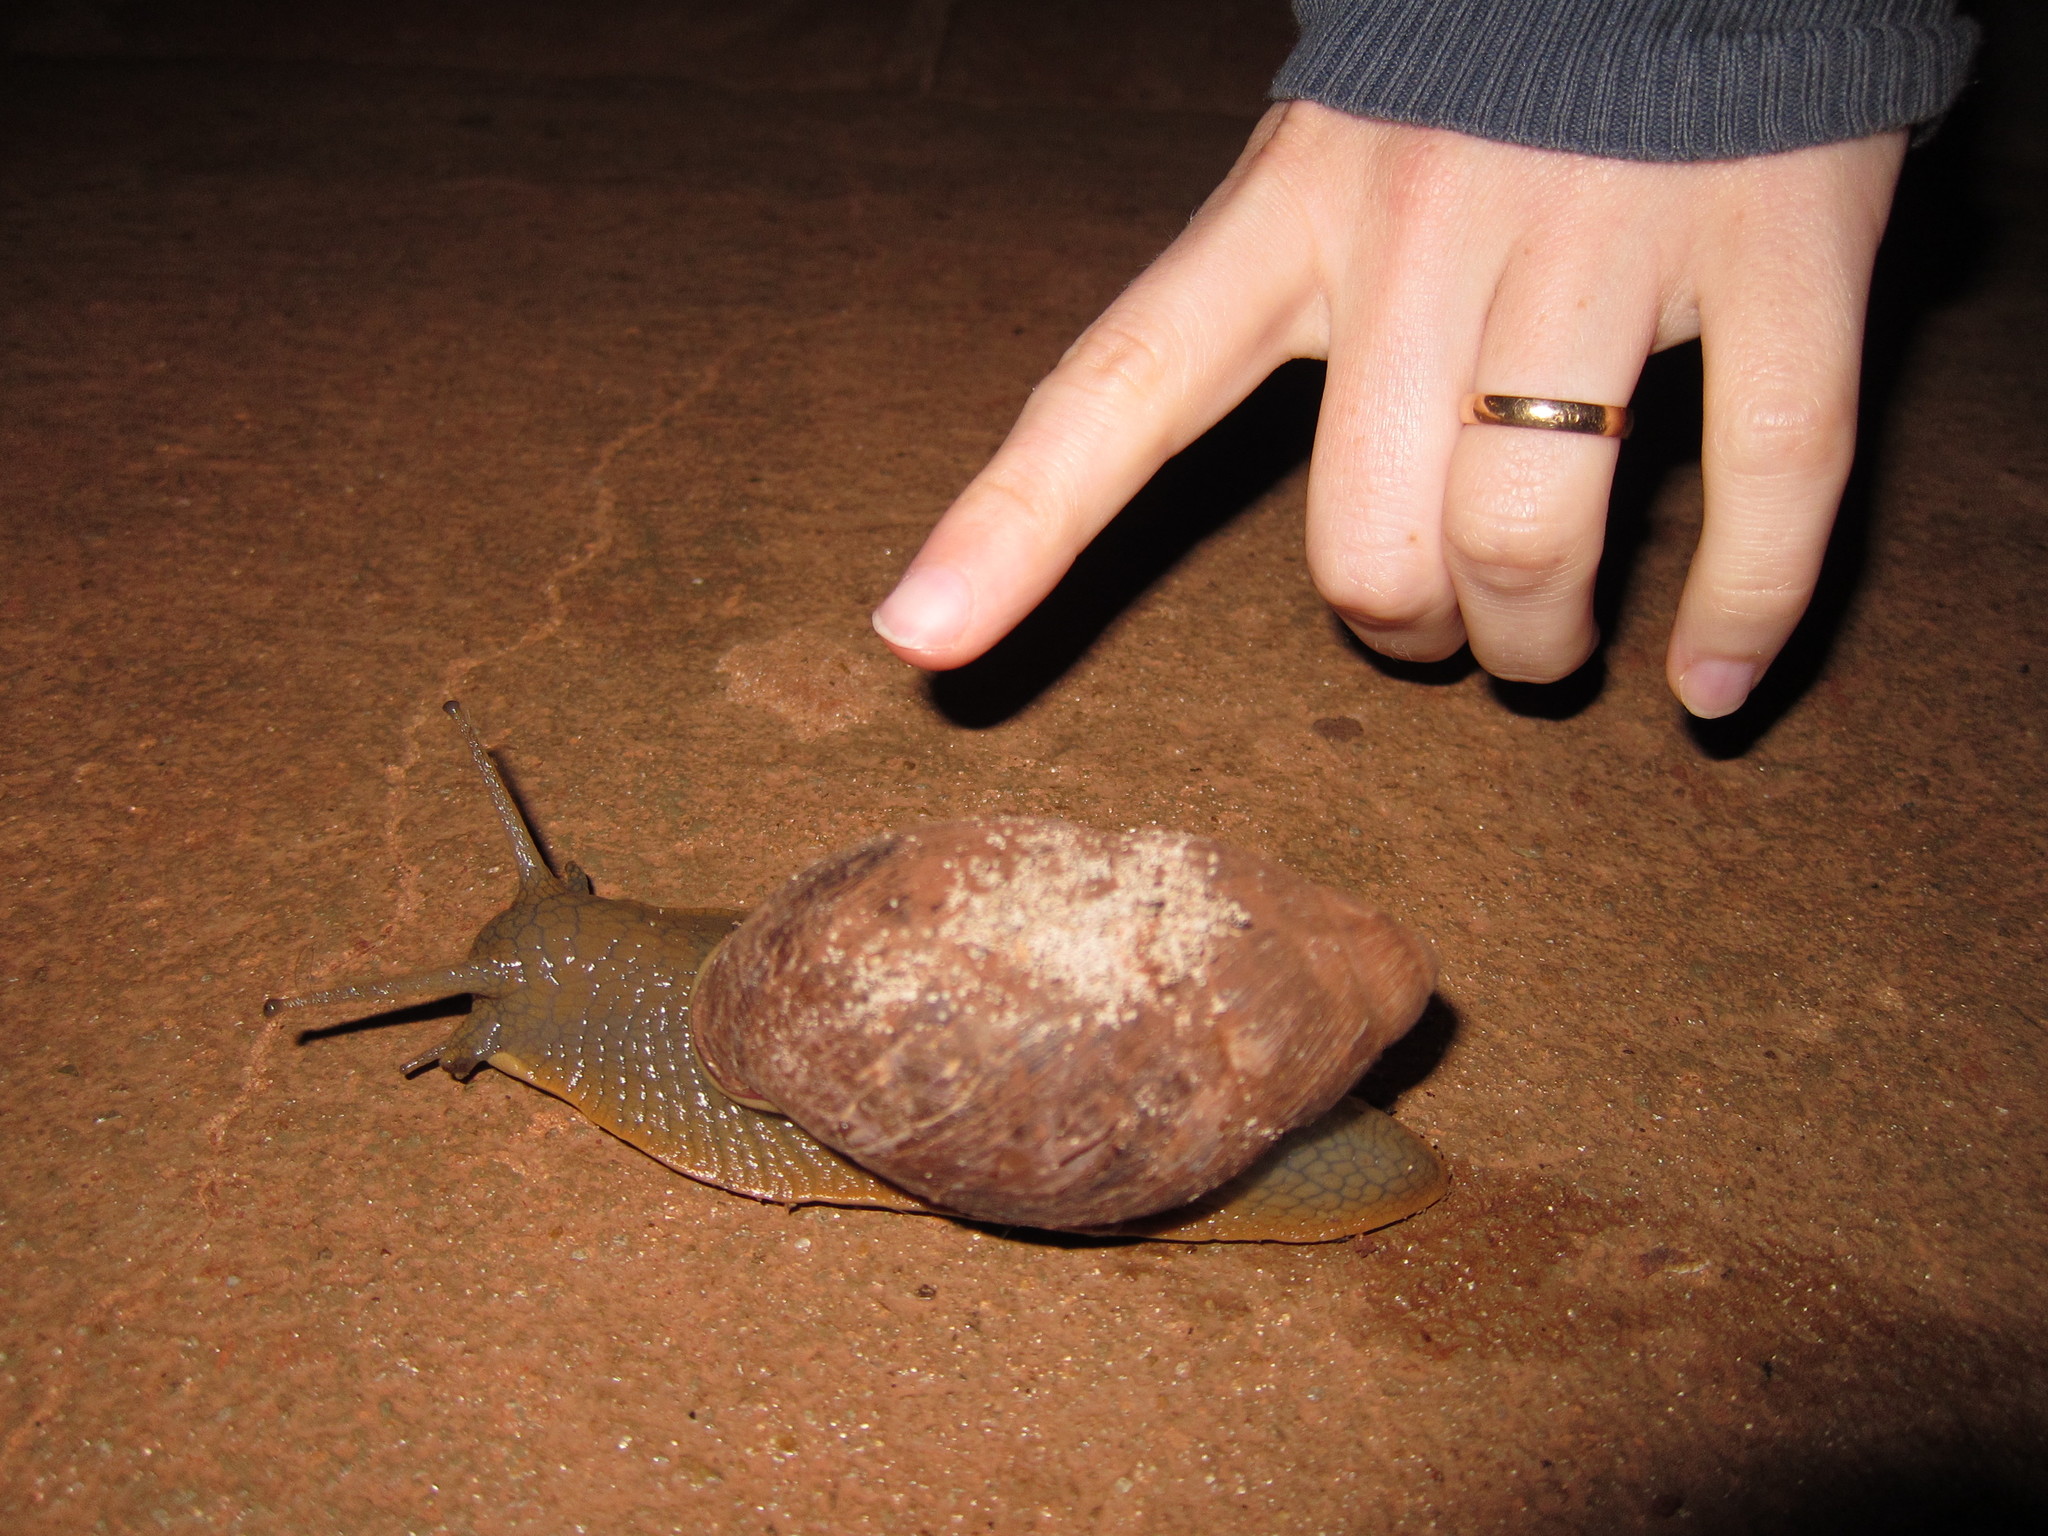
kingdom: Animalia
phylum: Mollusca
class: Gastropoda
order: Stylommatophora
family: Strophocheilidae
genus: Megalobulimus
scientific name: Megalobulimus sanctaepauli
